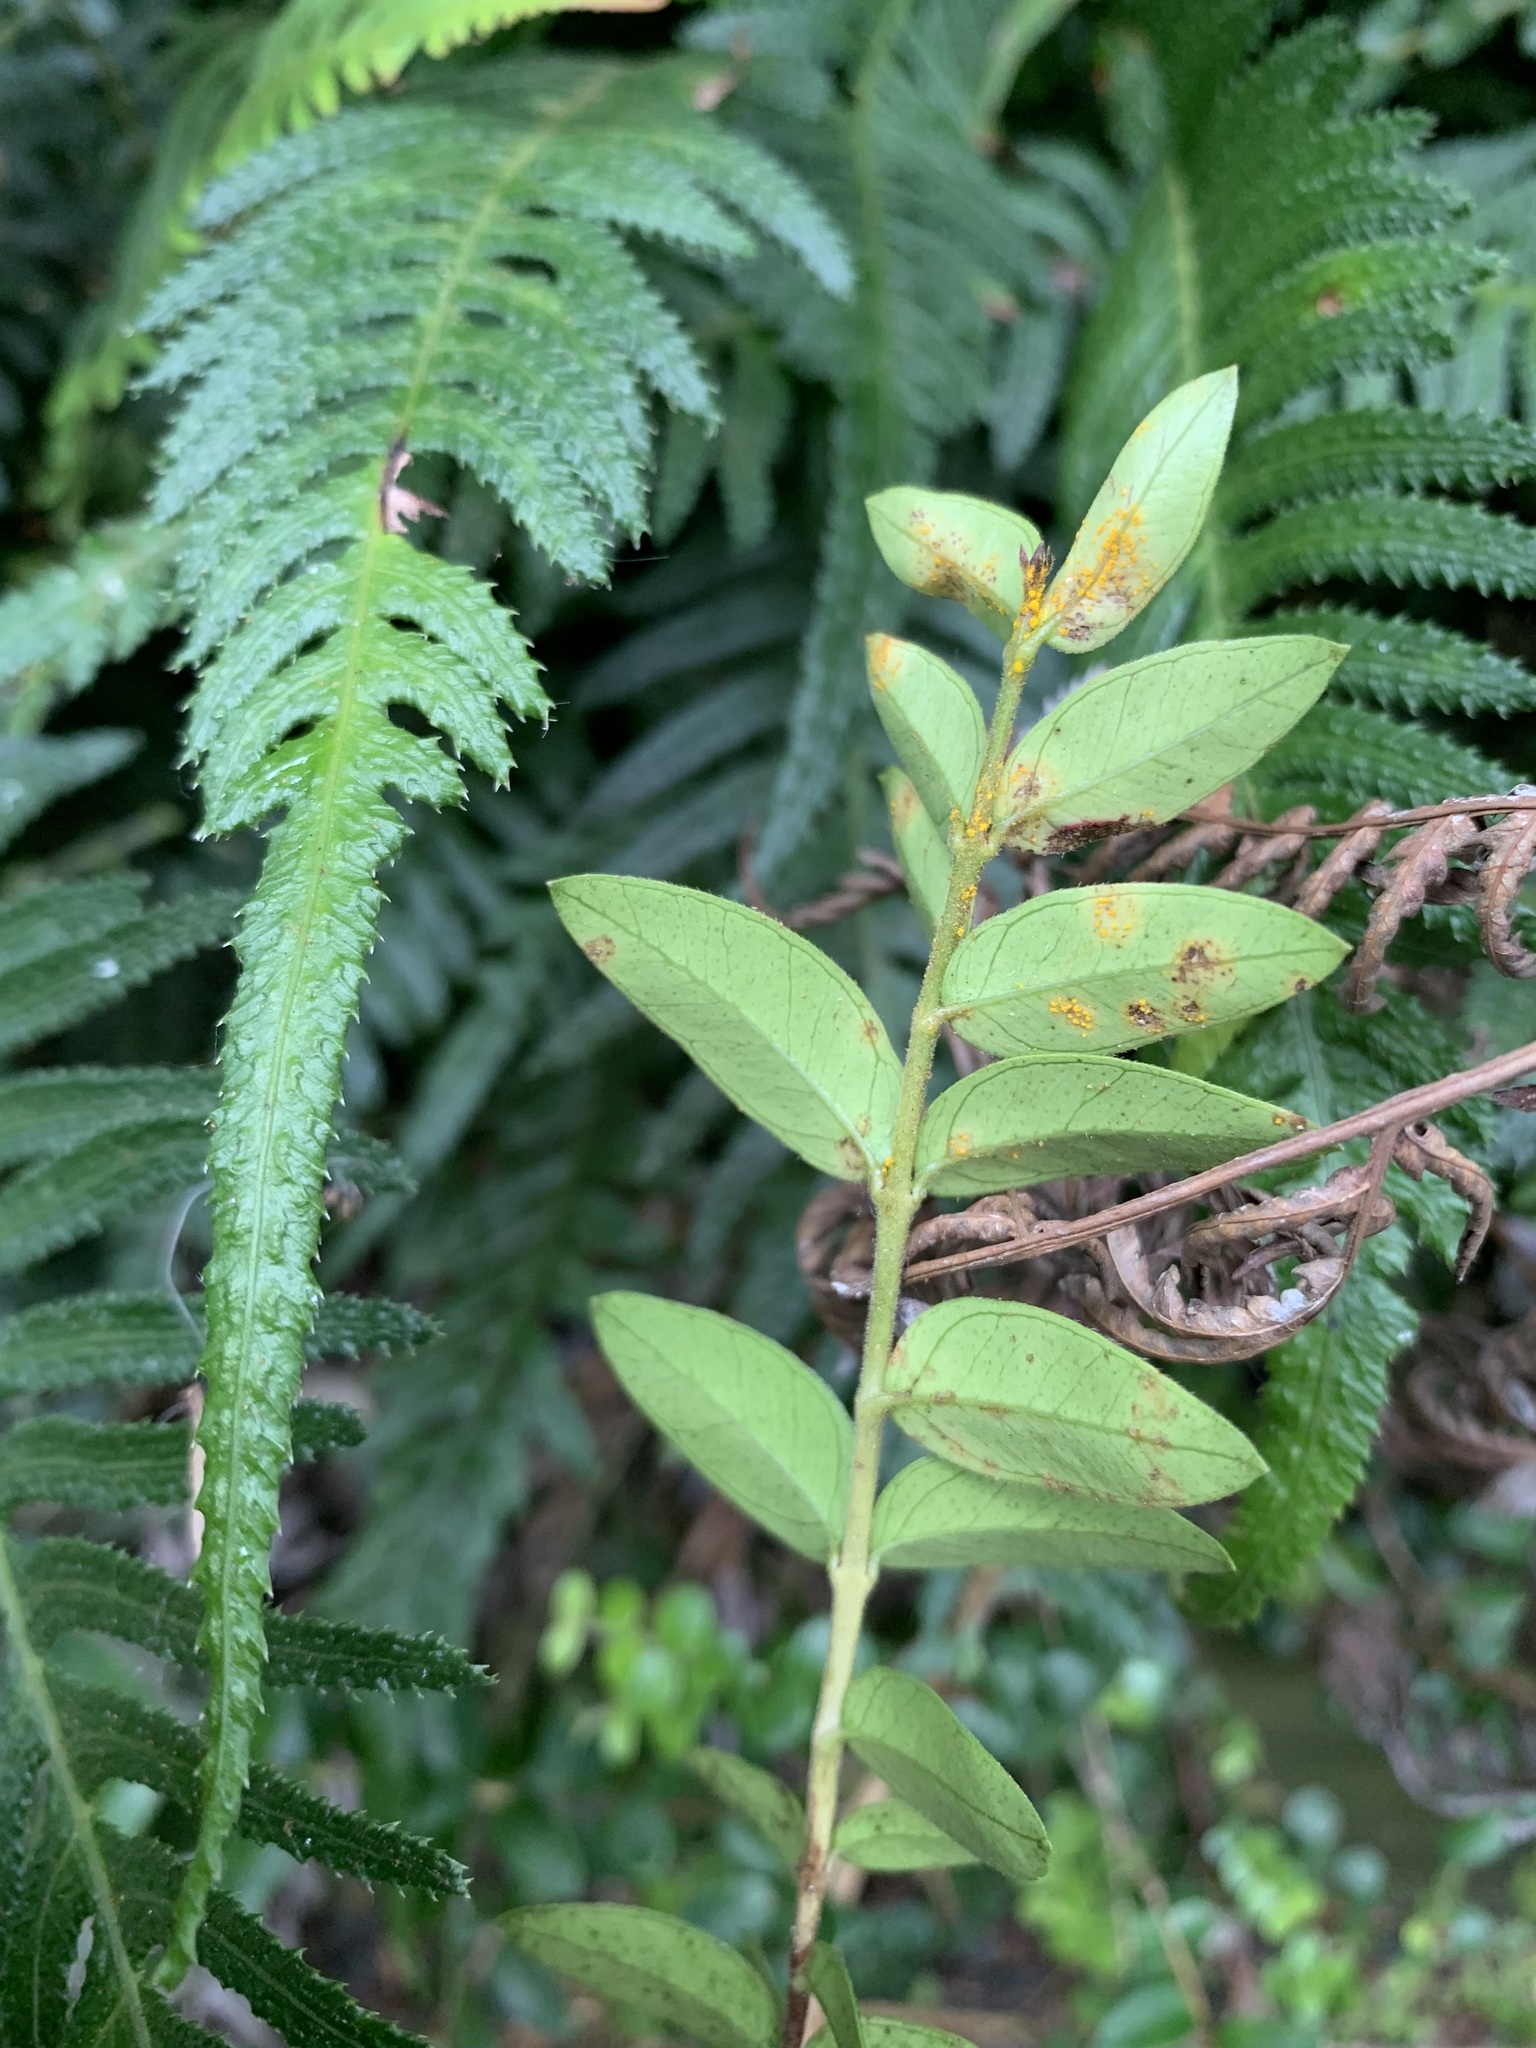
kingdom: Fungi
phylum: Basidiomycota
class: Pucciniomycetes
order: Pucciniales
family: Sphaerophragmiaceae
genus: Austropuccinia
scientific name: Austropuccinia psidii
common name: Myrtle rust
